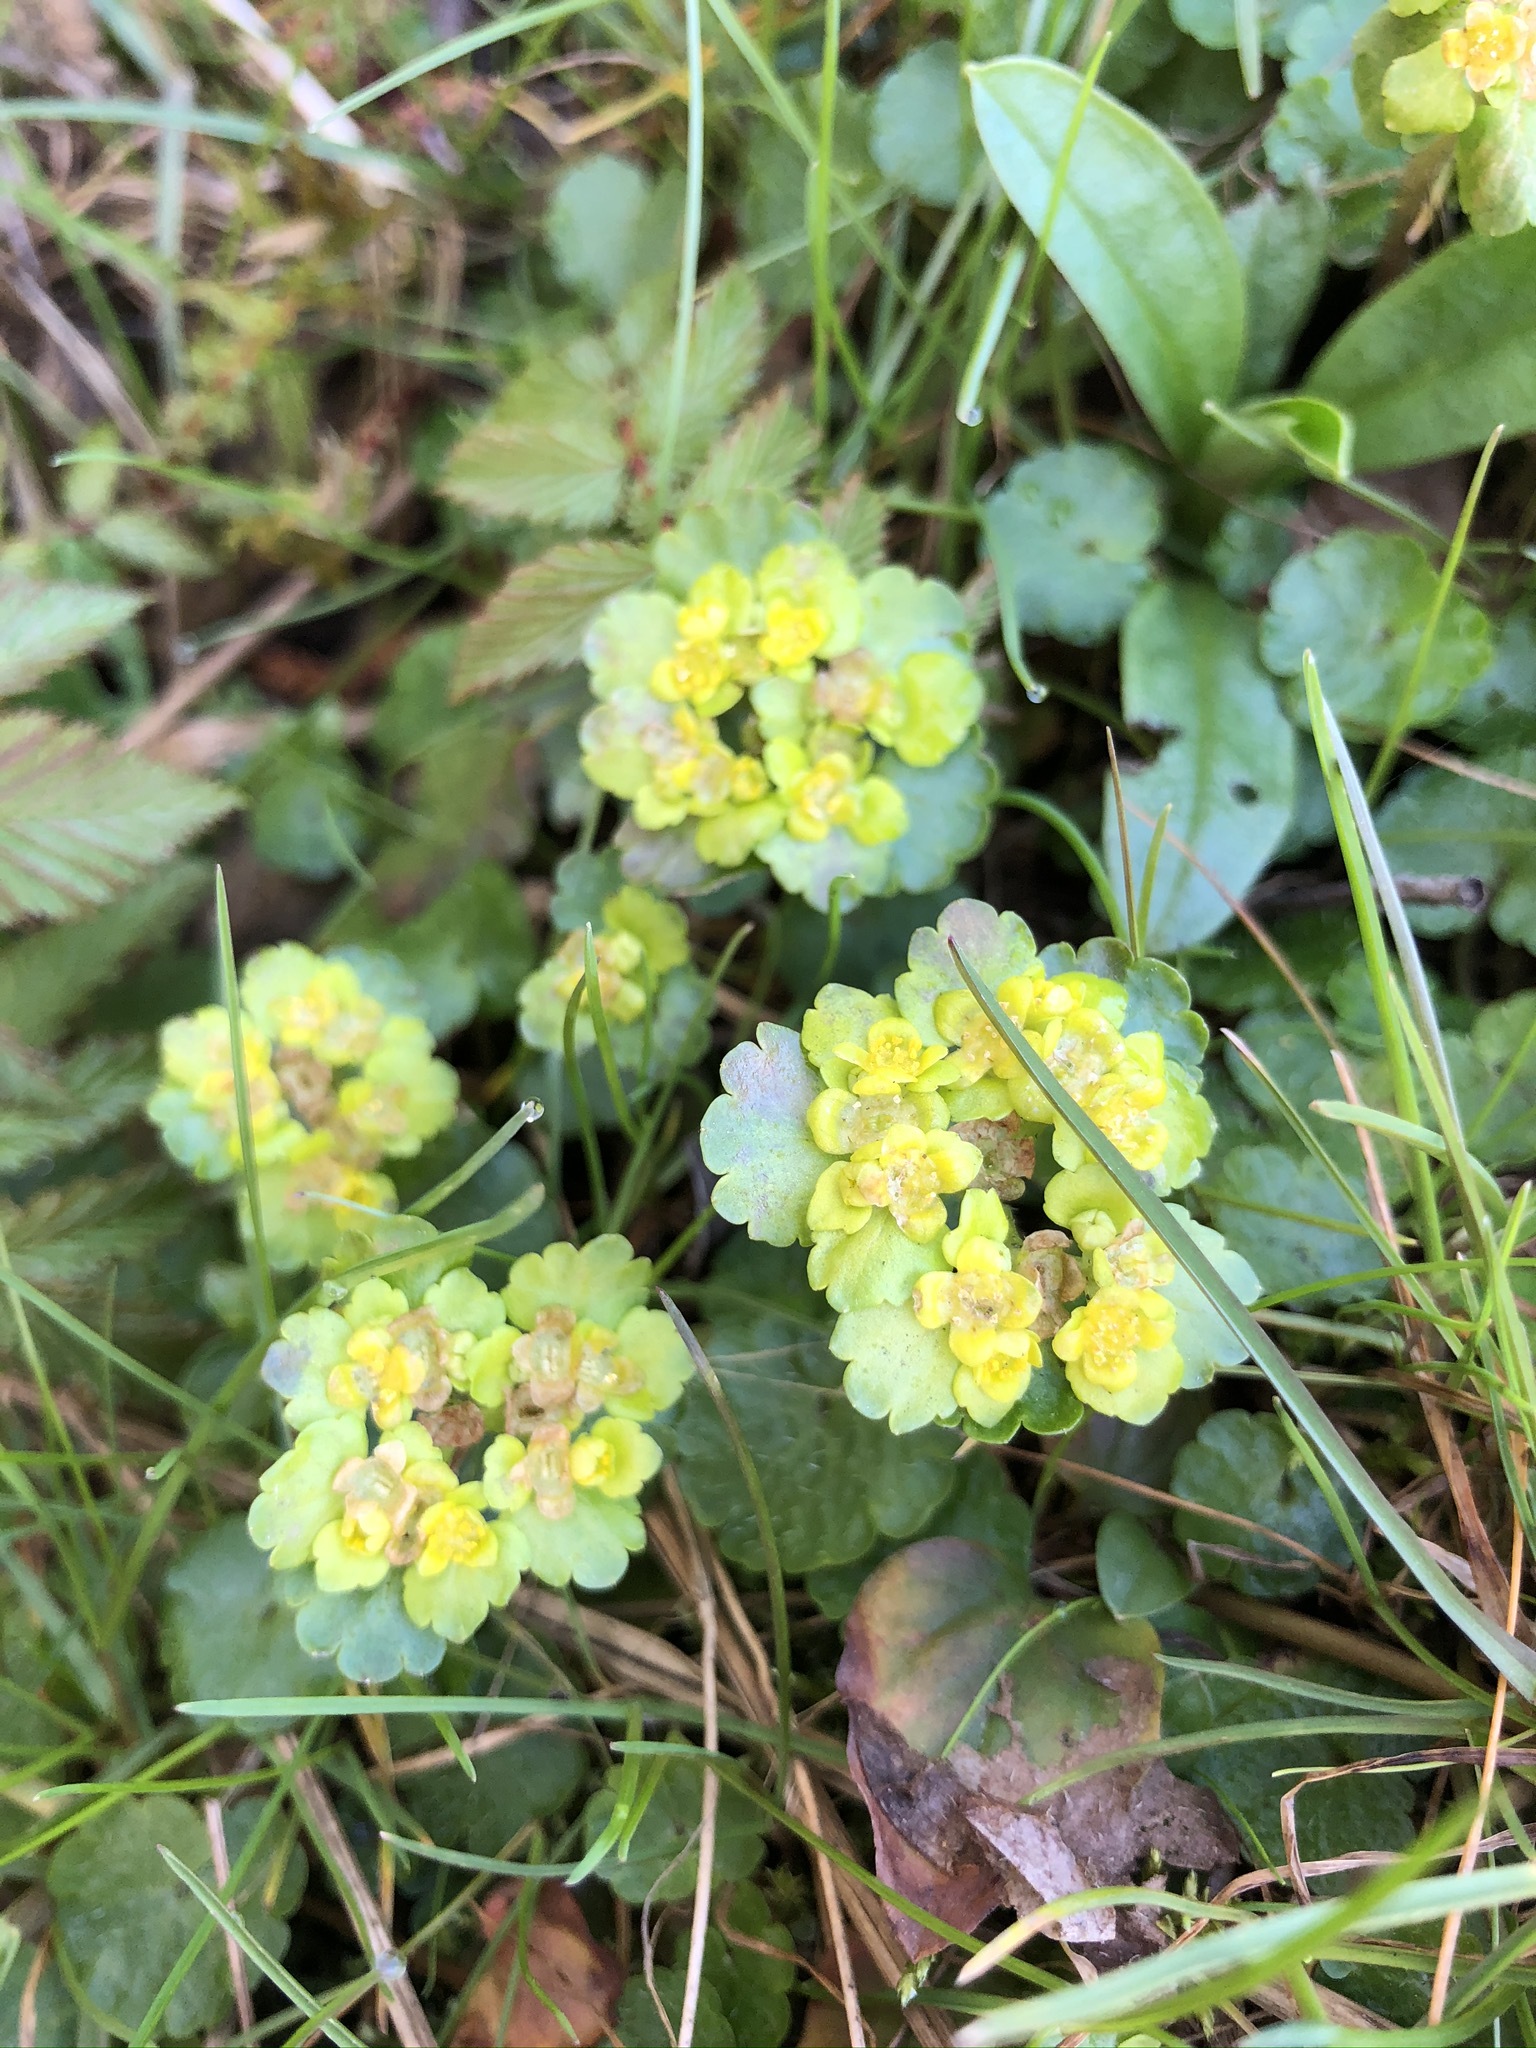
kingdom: Plantae
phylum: Tracheophyta
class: Magnoliopsida
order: Saxifragales
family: Saxifragaceae
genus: Chrysosplenium
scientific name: Chrysosplenium alternifolium
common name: Alternate-leaved golden-saxifrage
